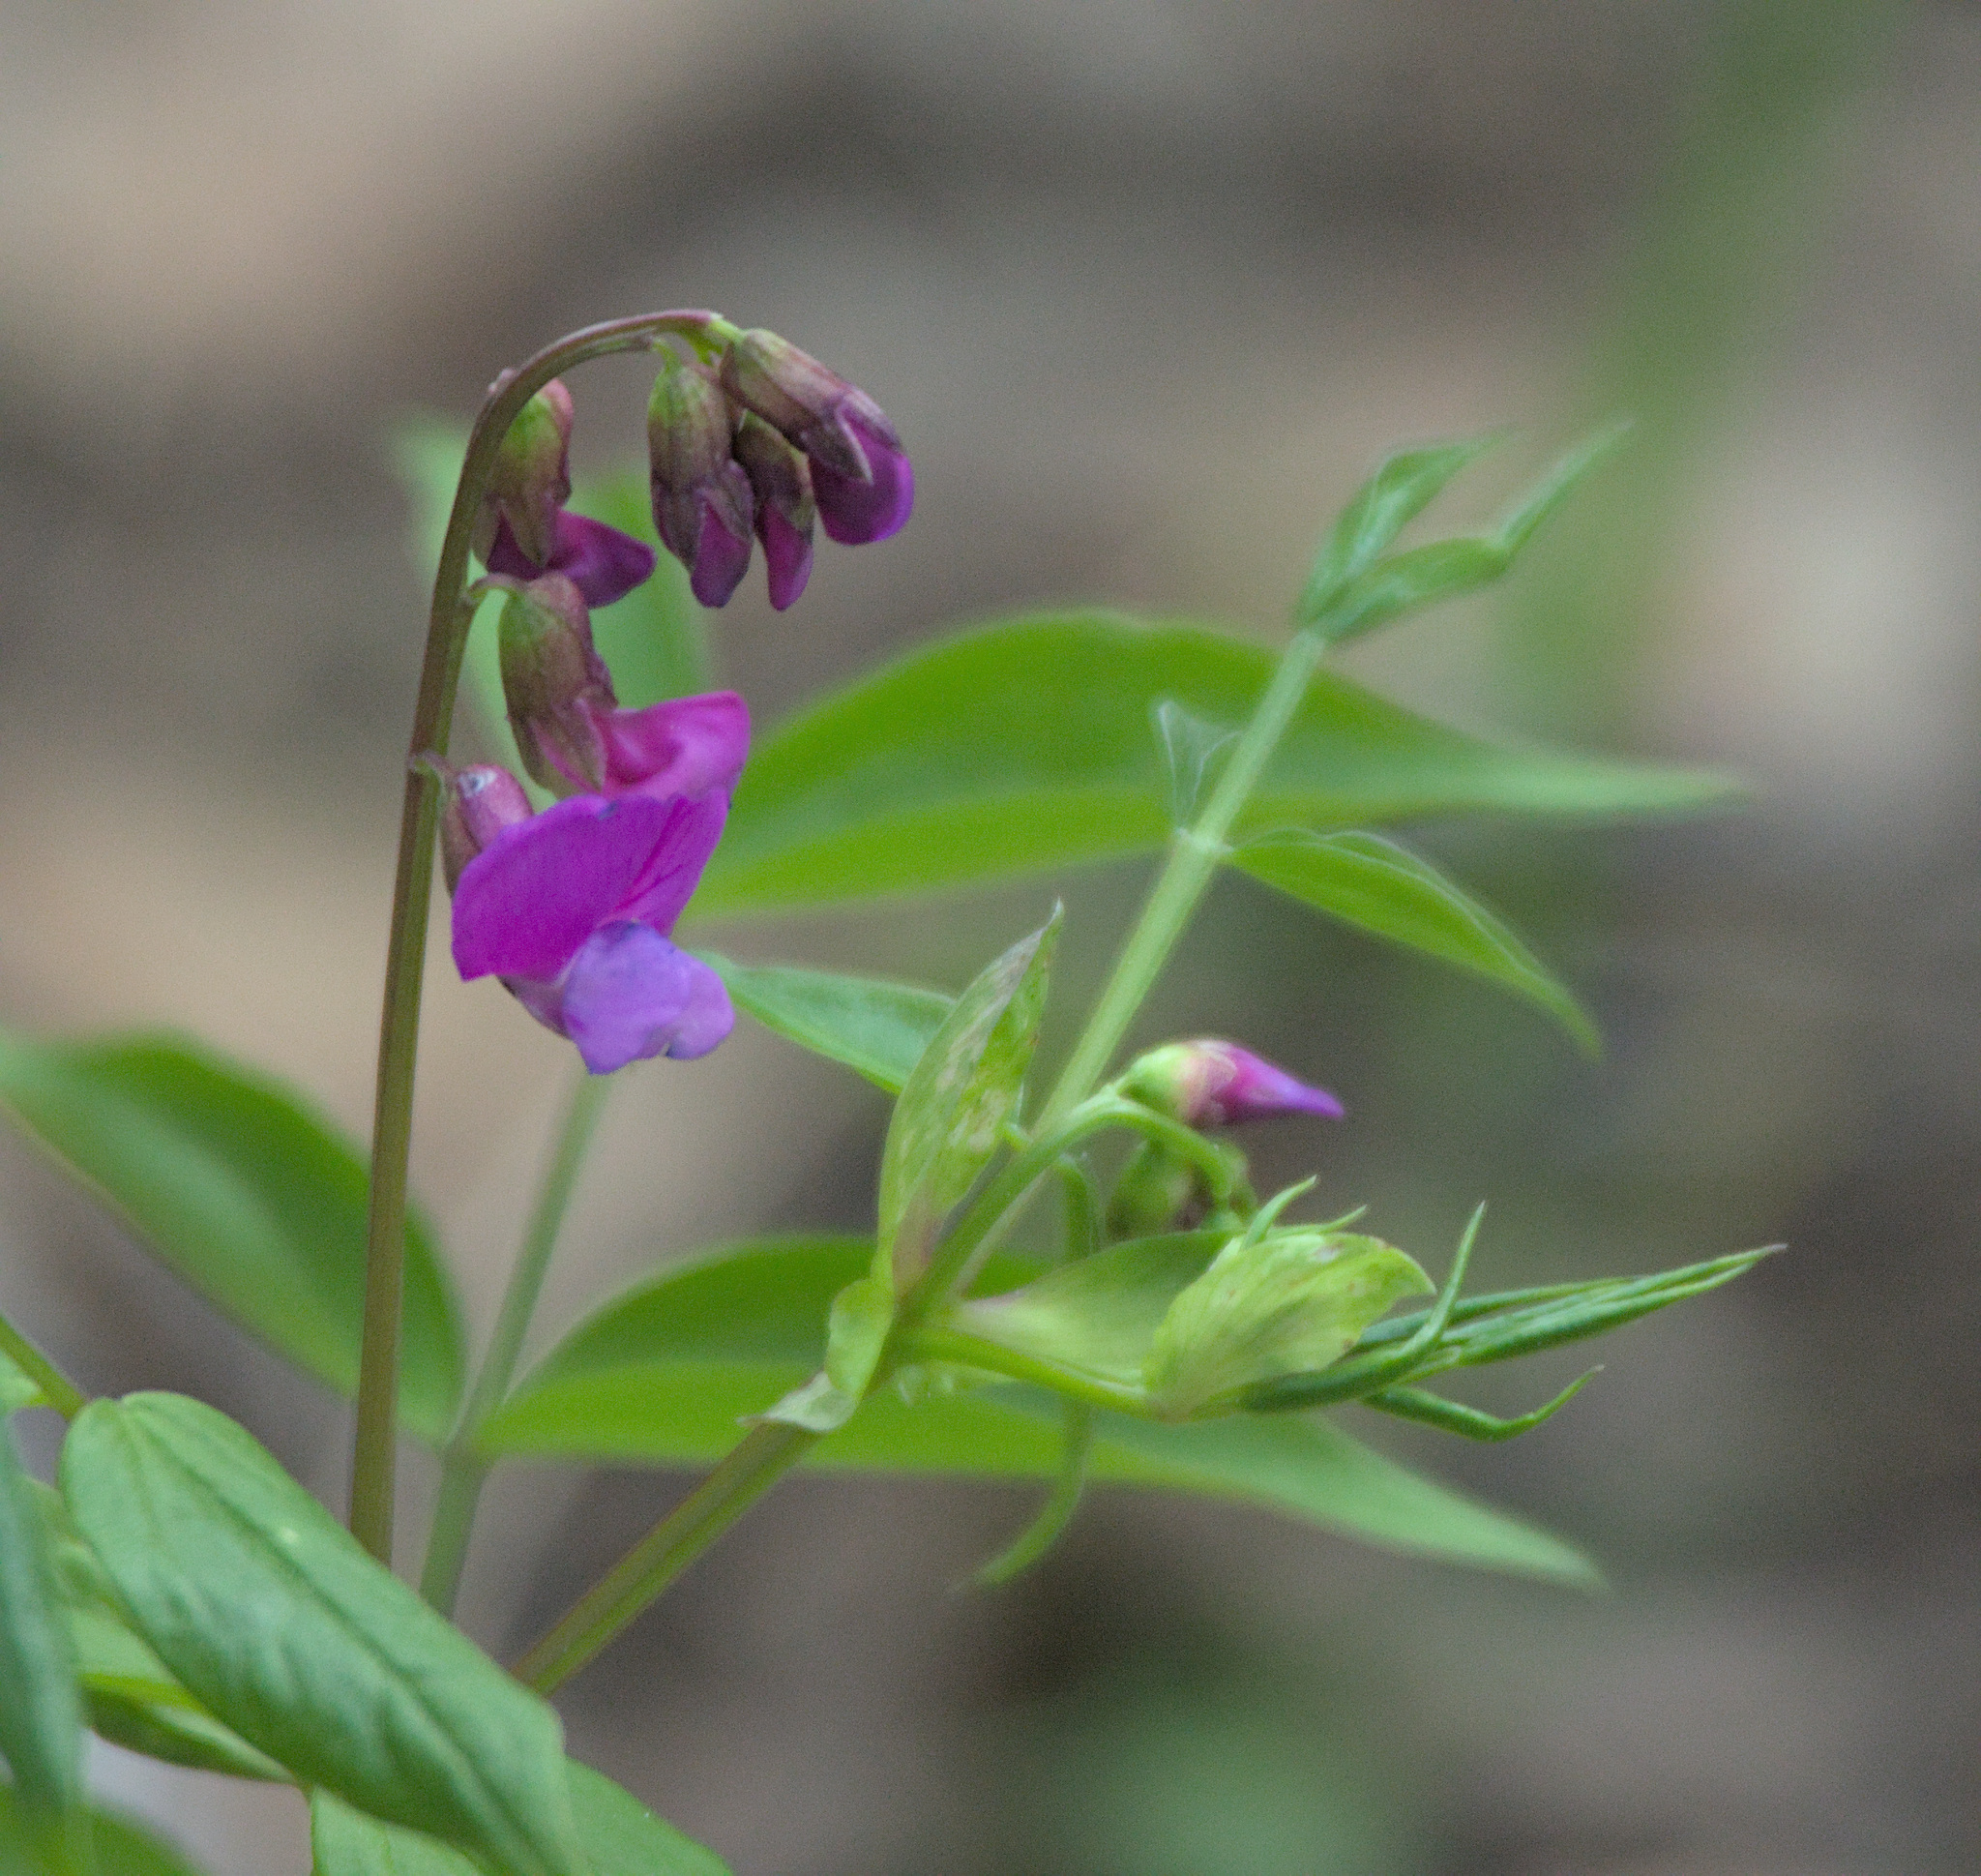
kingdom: Plantae
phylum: Tracheophyta
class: Magnoliopsida
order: Fabales
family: Fabaceae
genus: Lathyrus
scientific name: Lathyrus vernus
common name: Spring pea
